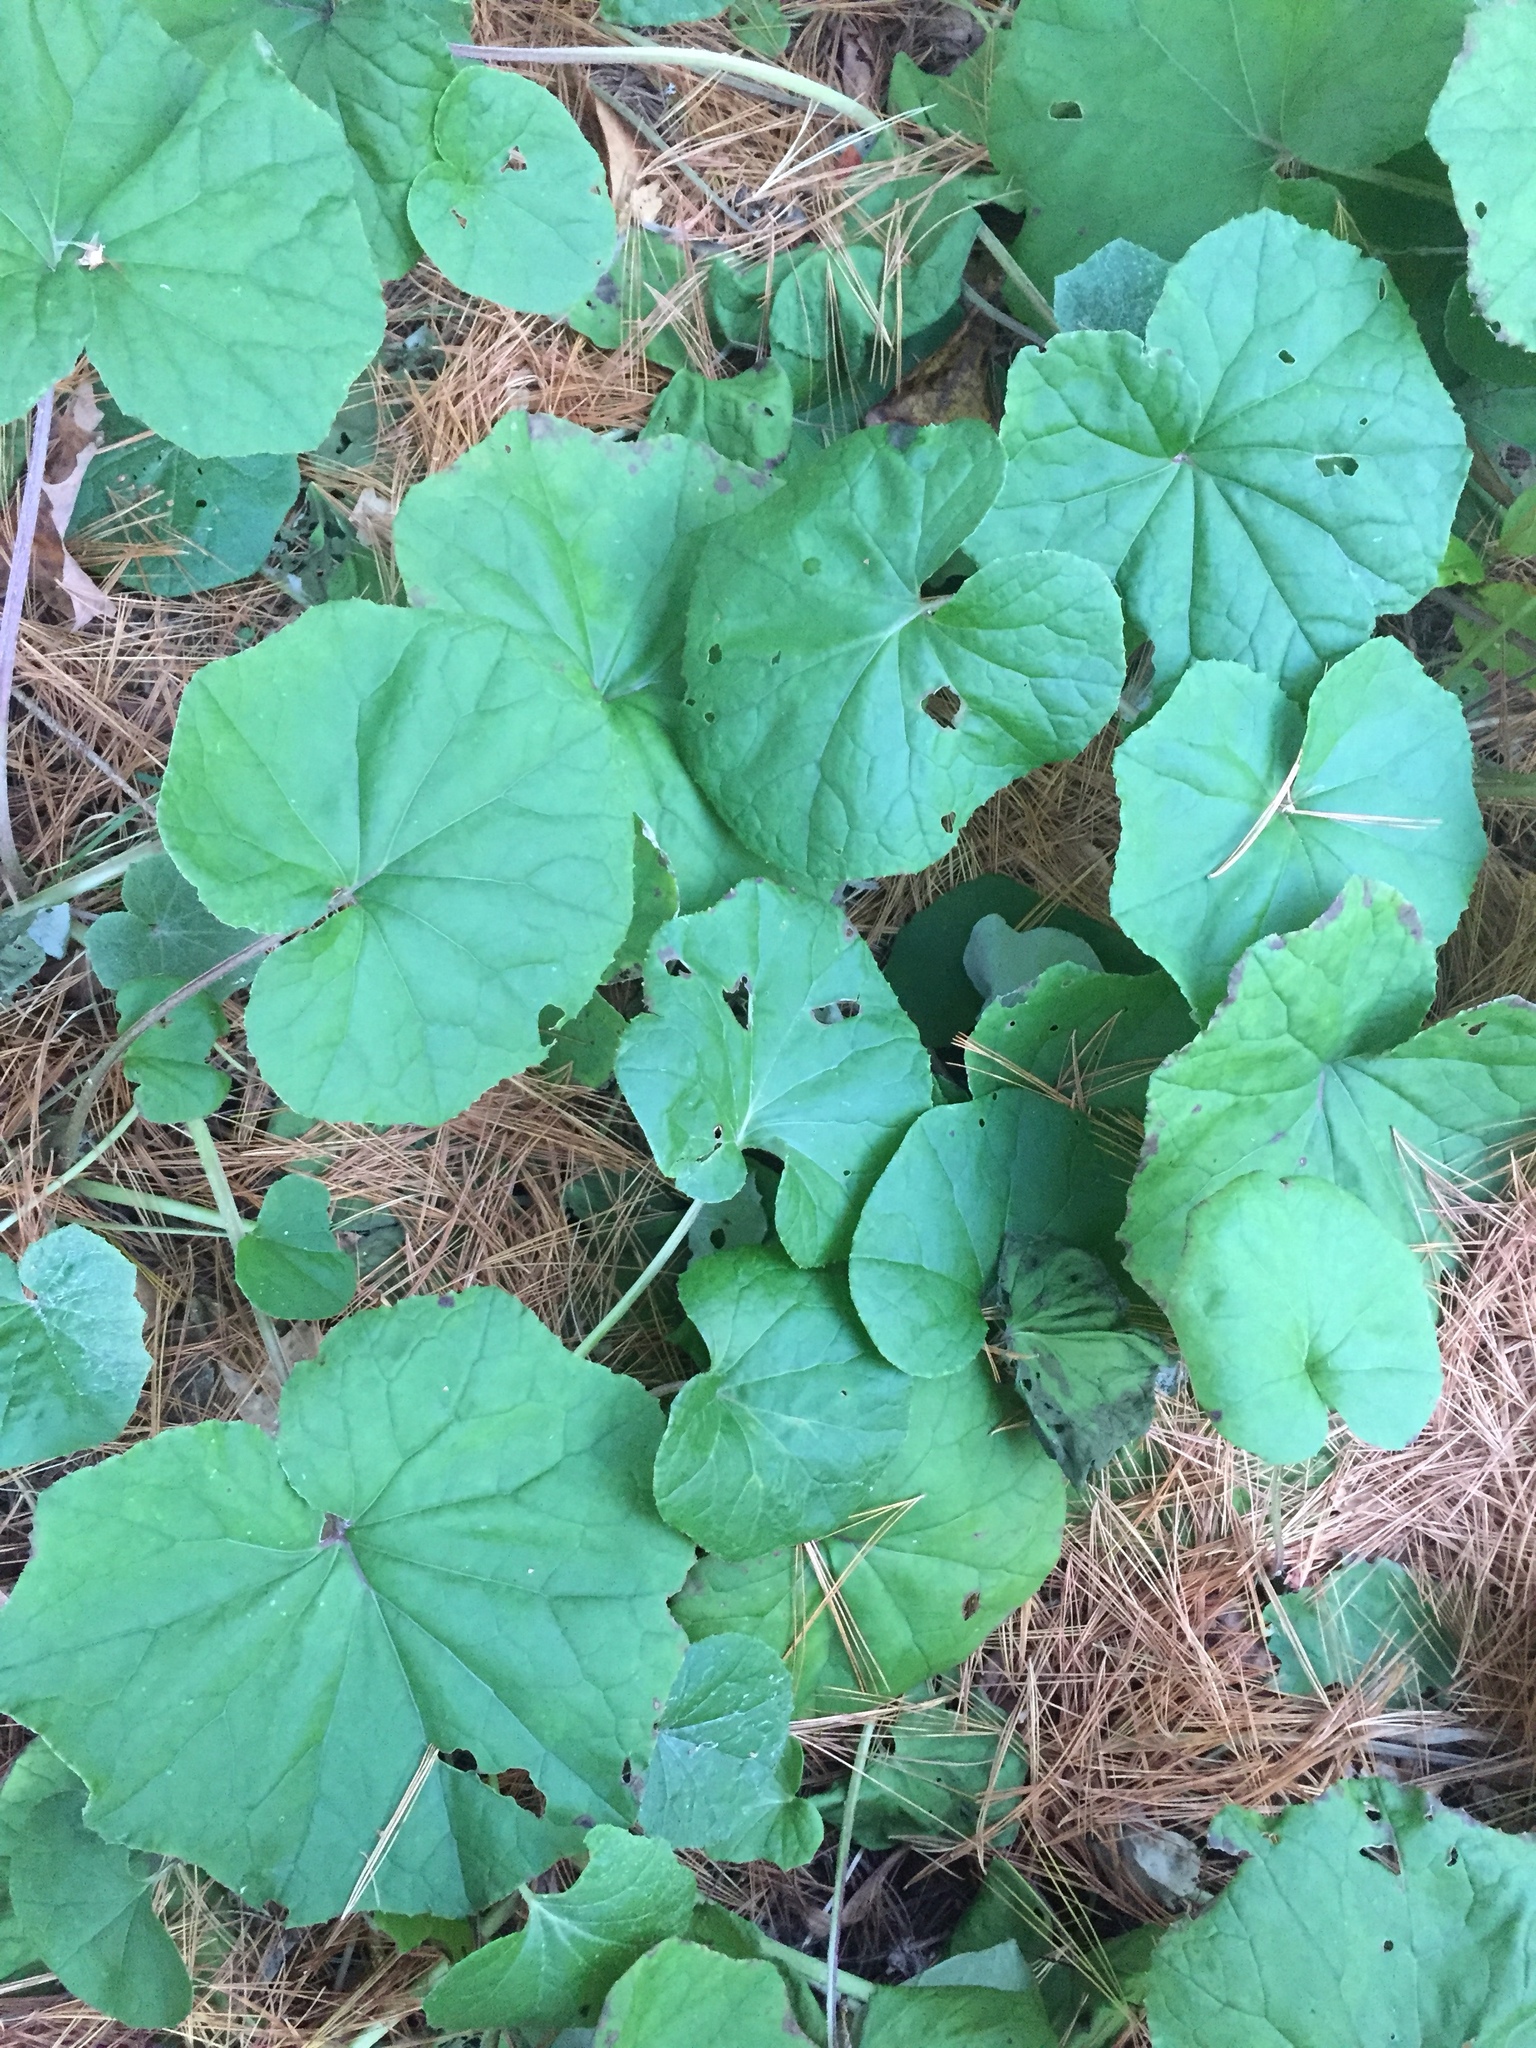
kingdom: Plantae
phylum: Tracheophyta
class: Magnoliopsida
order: Asterales
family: Asteraceae
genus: Tussilago
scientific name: Tussilago farfara
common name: Coltsfoot
